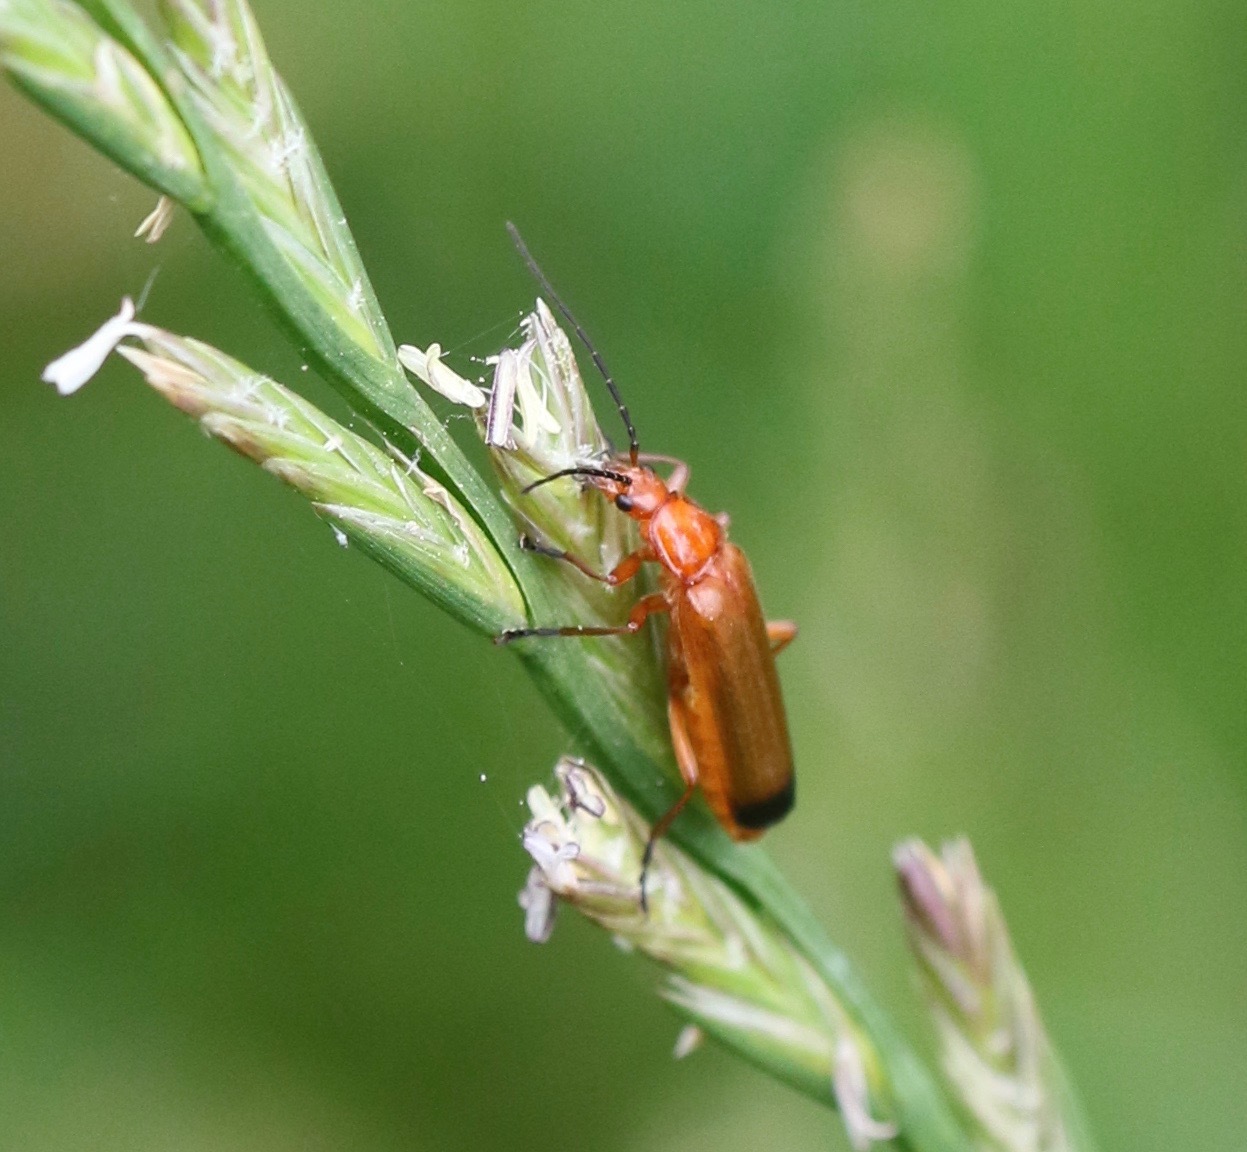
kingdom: Animalia
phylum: Arthropoda
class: Insecta
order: Coleoptera
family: Cantharidae
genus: Rhagonycha
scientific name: Rhagonycha fulva
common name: Common red soldier beetle
